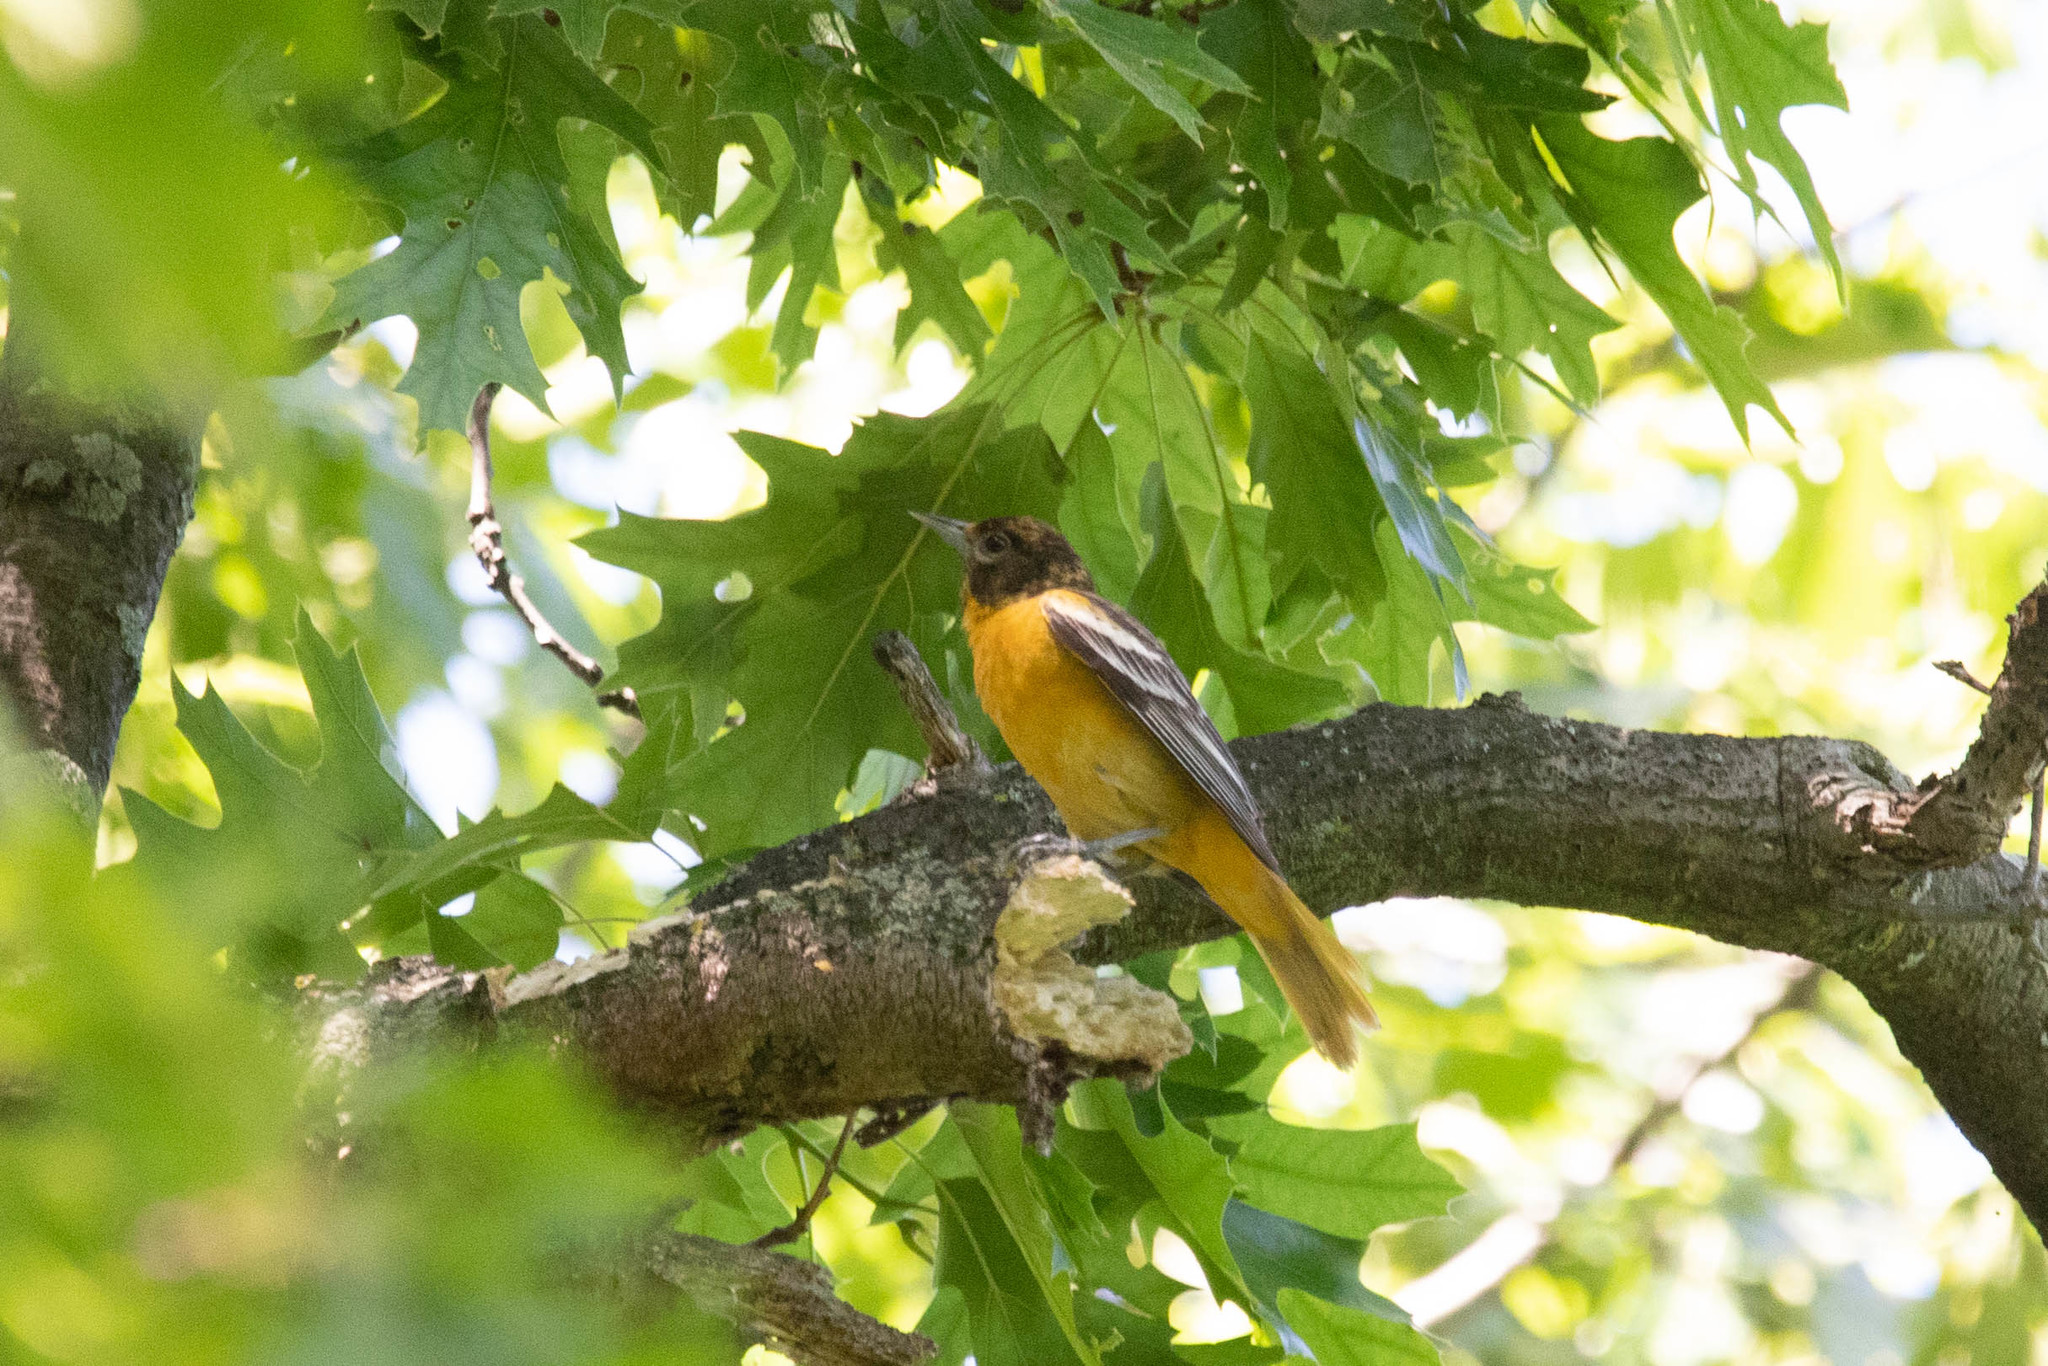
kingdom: Animalia
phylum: Chordata
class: Aves
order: Passeriformes
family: Icteridae
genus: Icterus
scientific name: Icterus galbula
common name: Baltimore oriole
